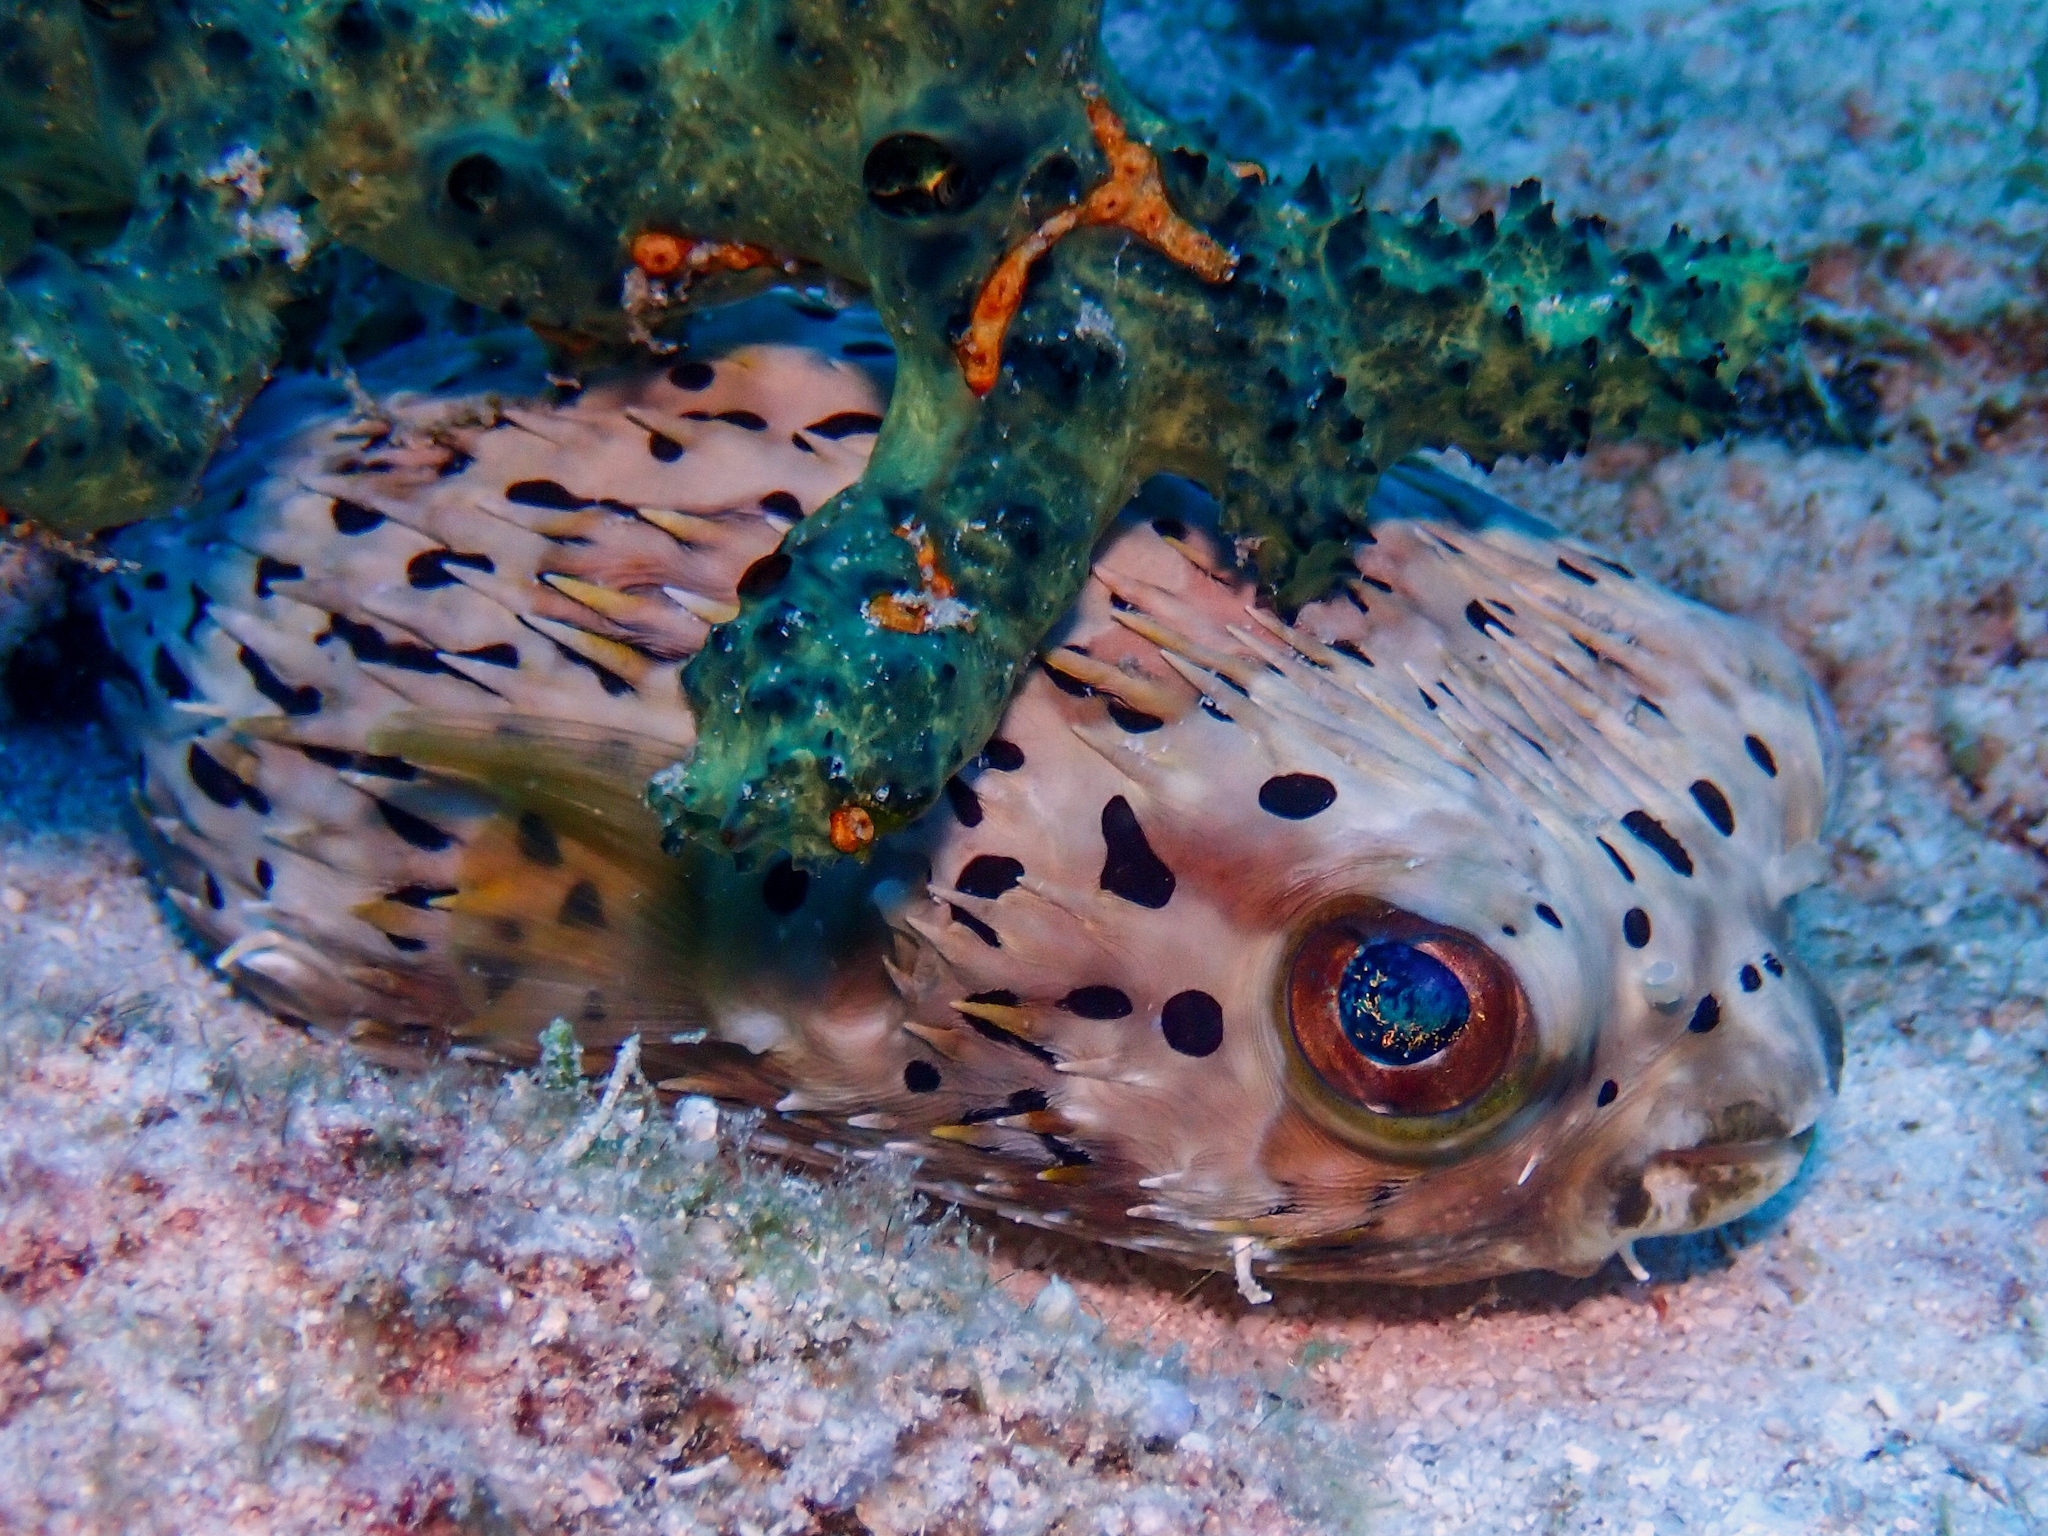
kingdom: Animalia
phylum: Chordata
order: Tetraodontiformes
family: Diodontidae
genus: Diodon
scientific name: Diodon holocanthus
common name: Balloonfish
